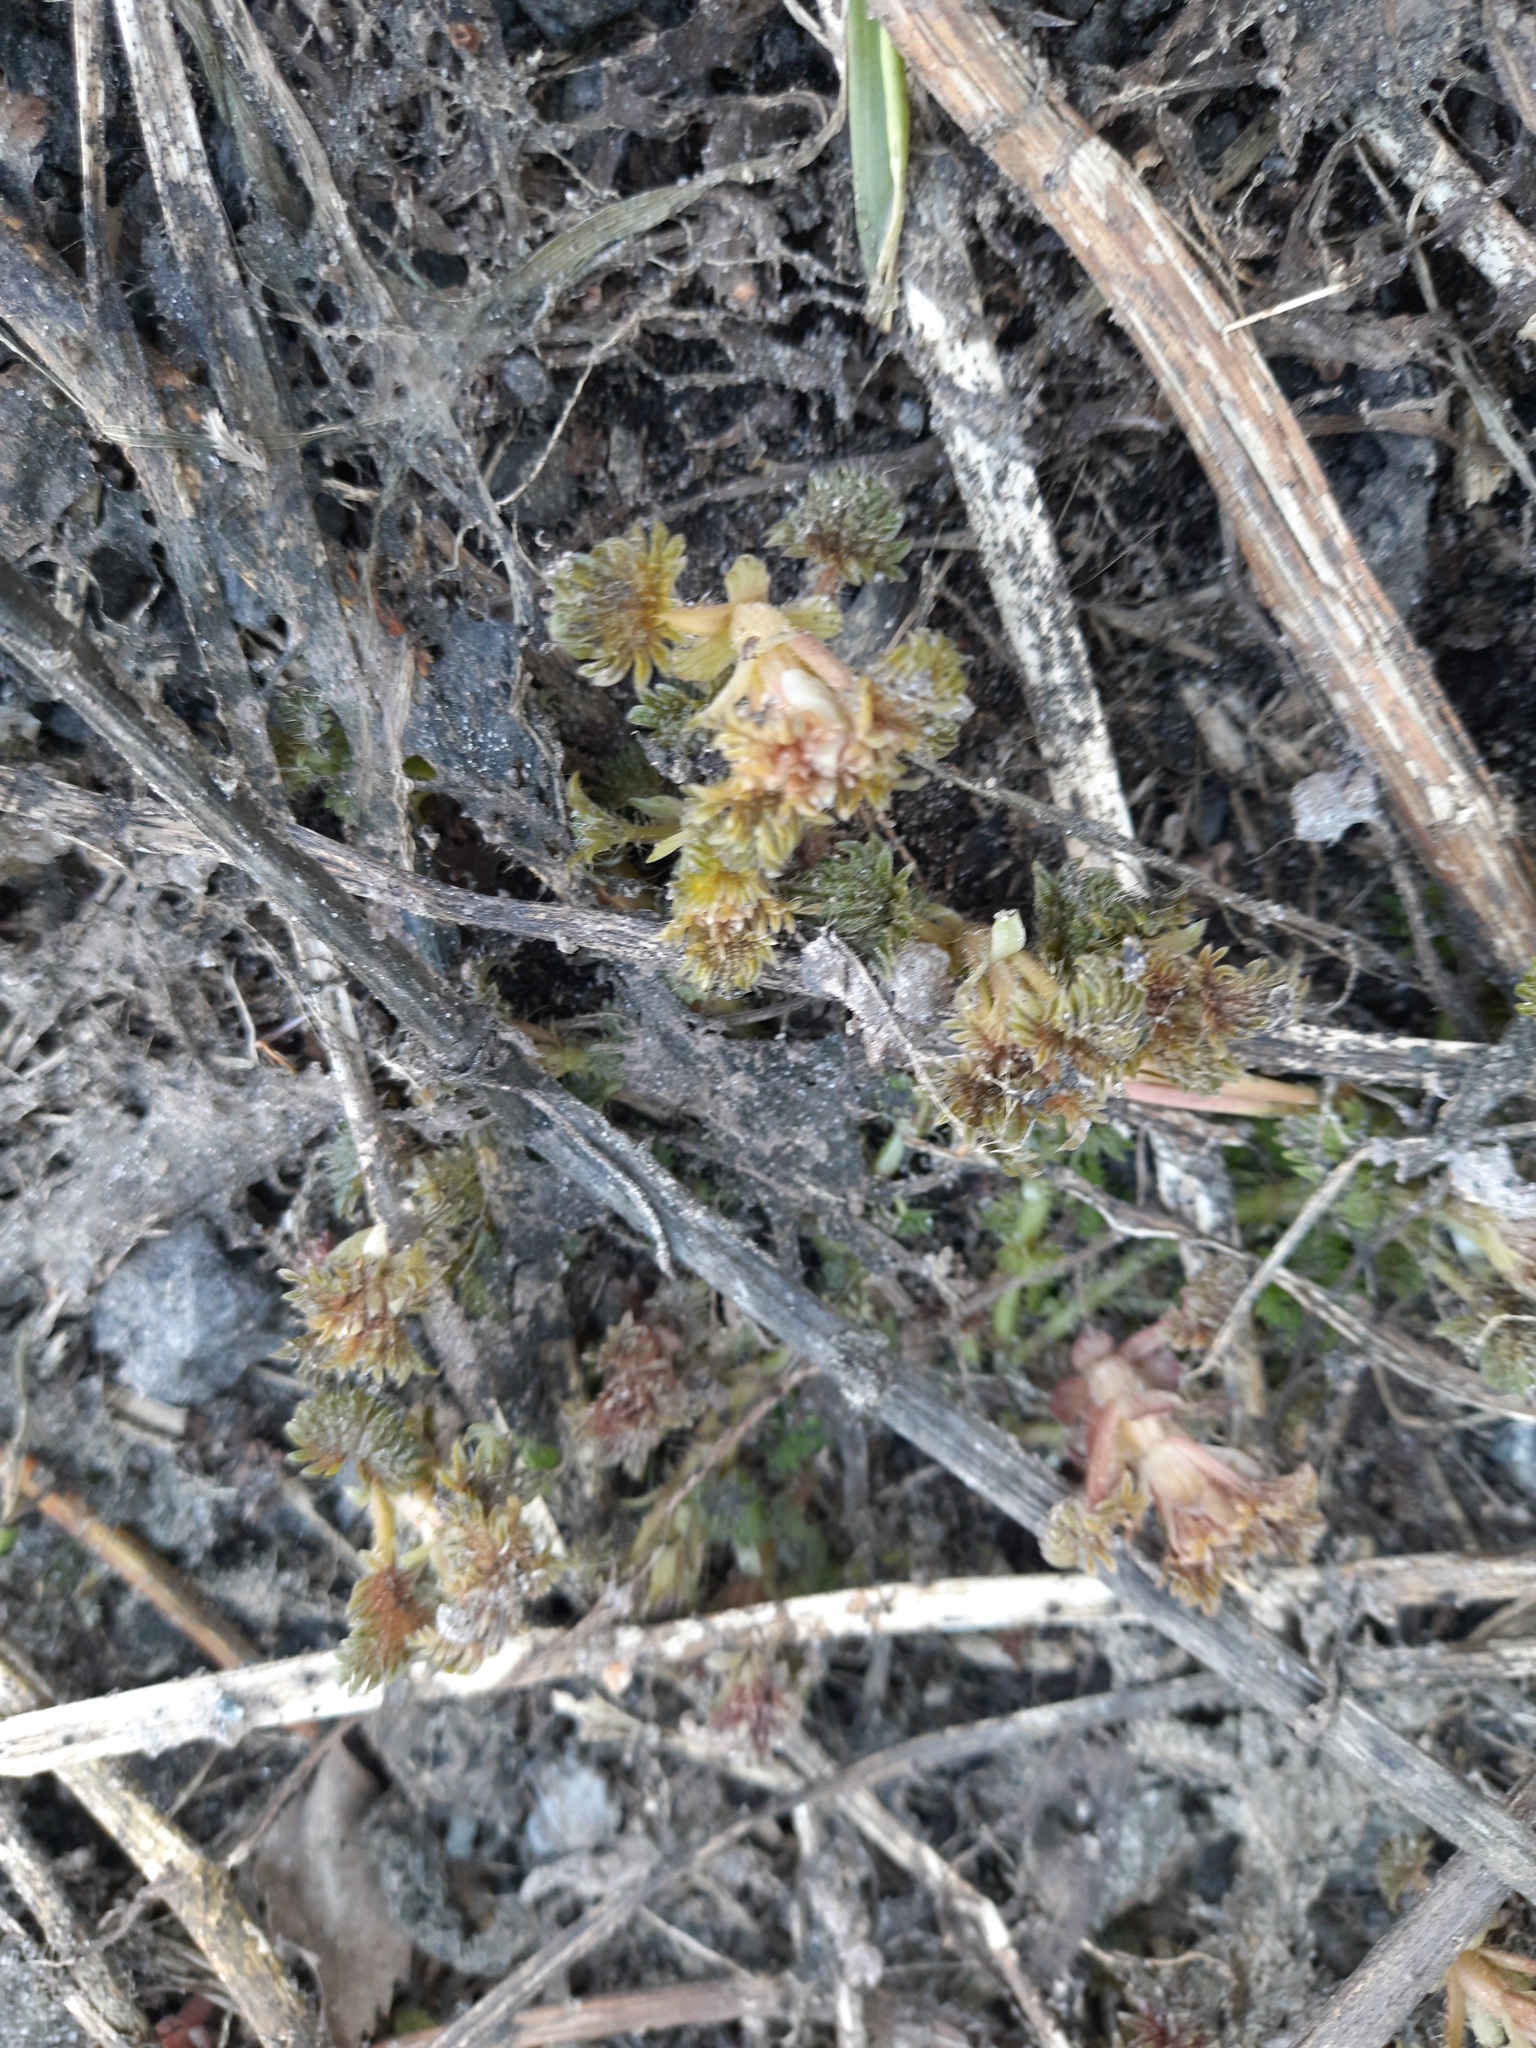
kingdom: Plantae
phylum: Tracheophyta
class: Magnoliopsida
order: Rosales
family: Urticaceae
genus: Urtica
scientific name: Urtica dioica
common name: Common nettle
